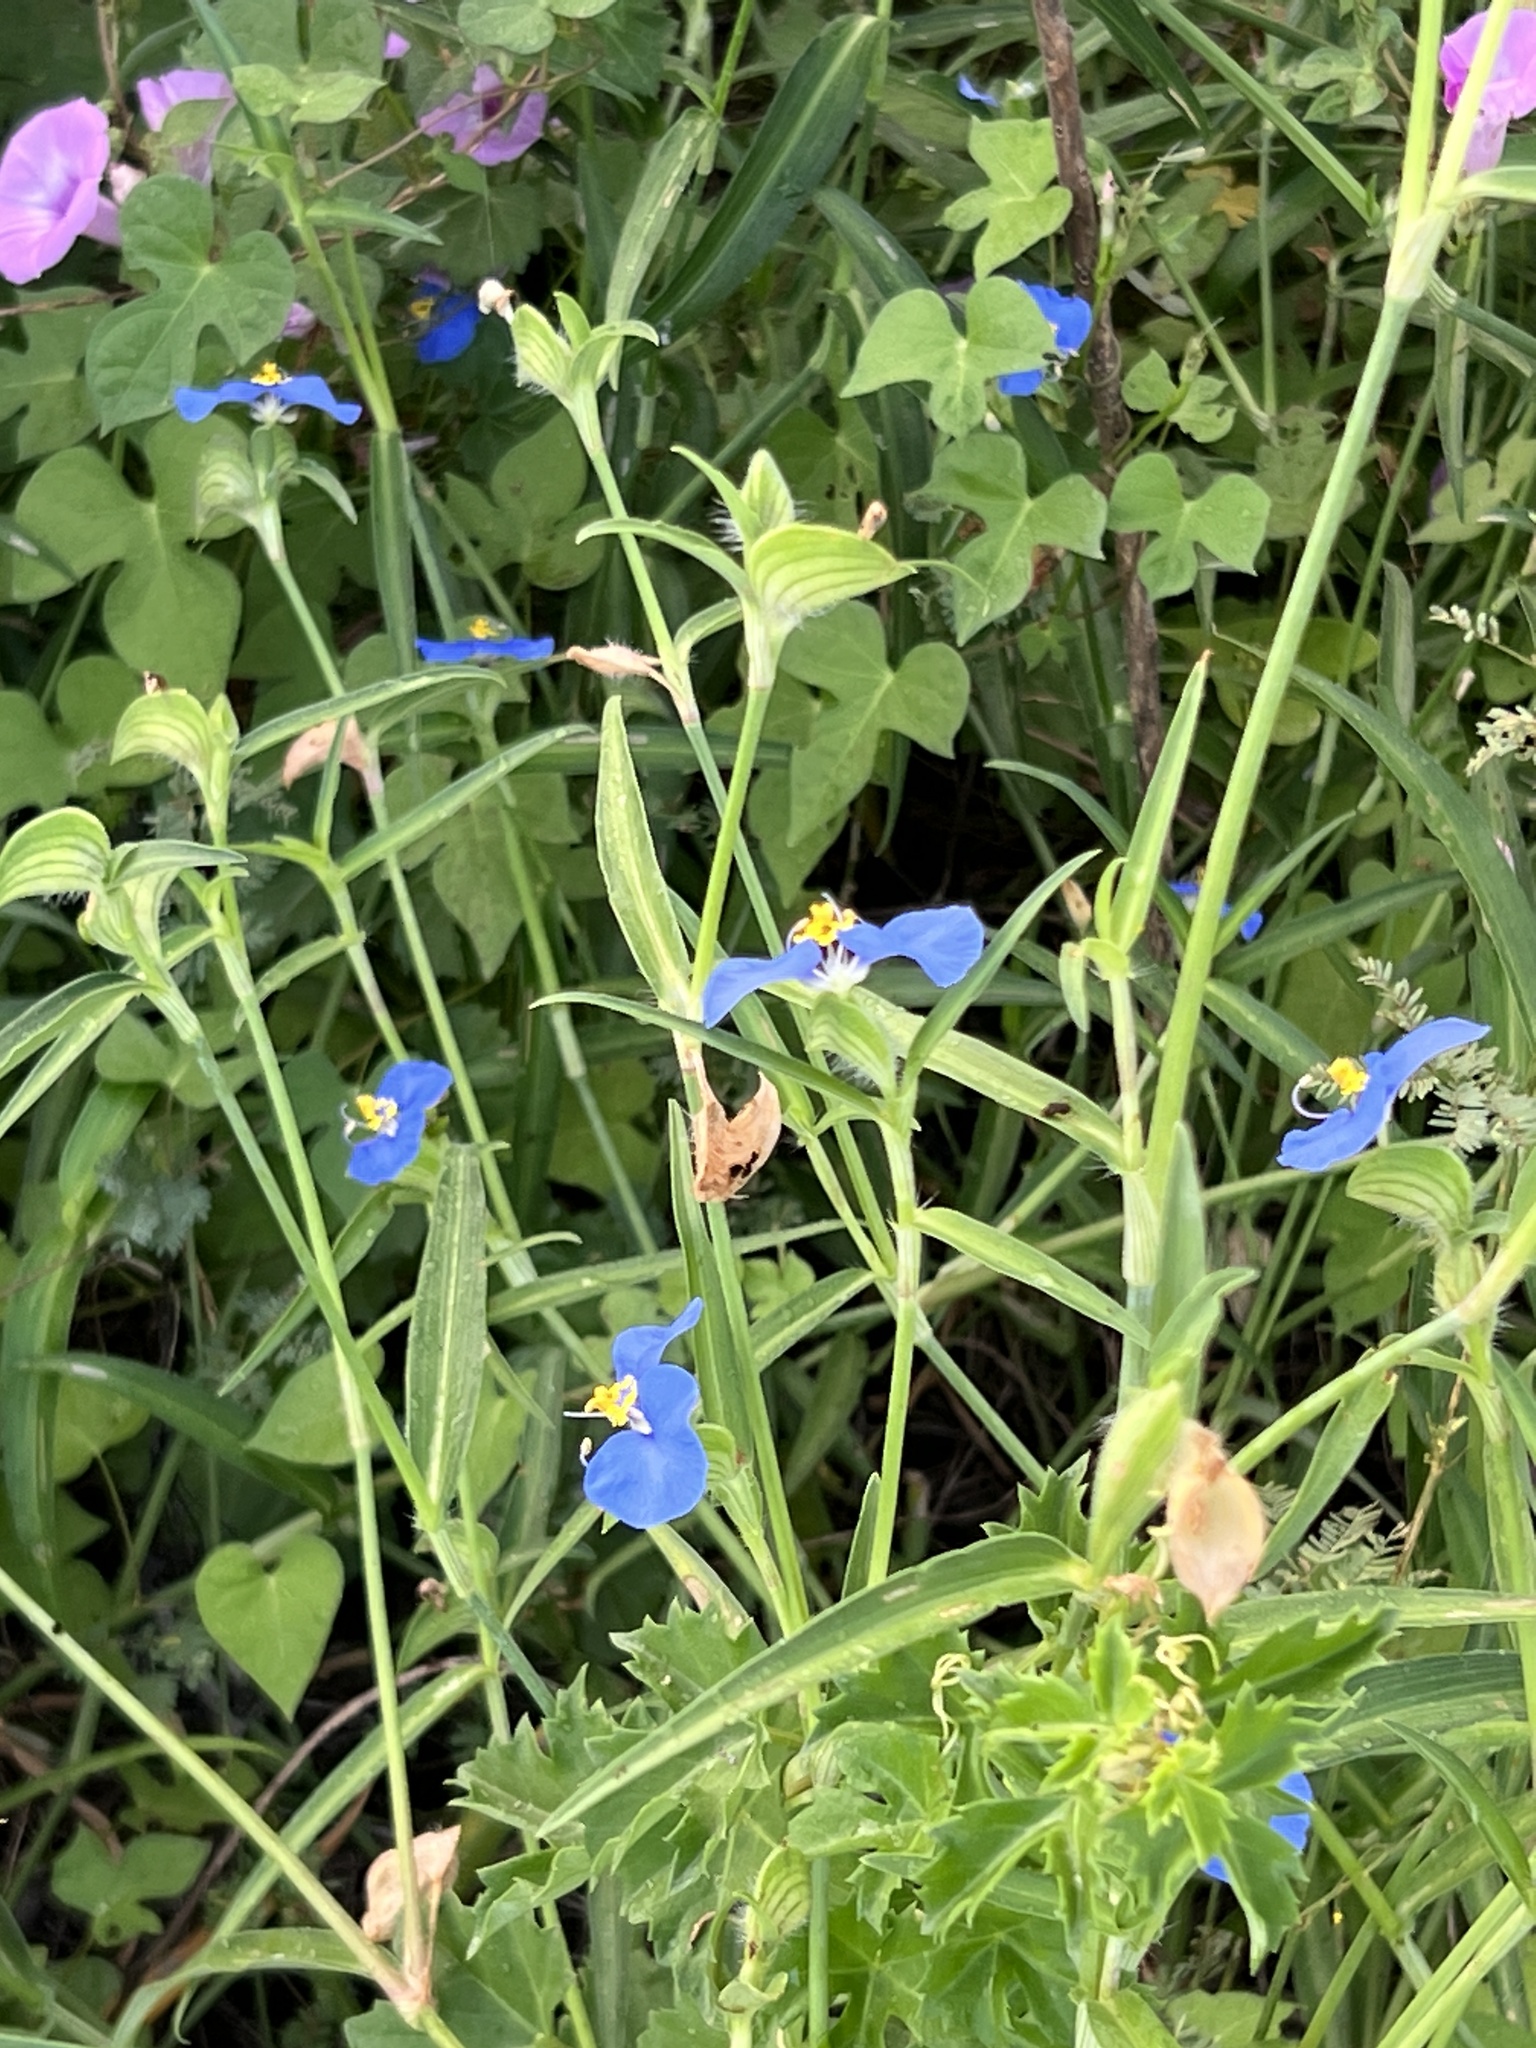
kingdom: Plantae
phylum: Tracheophyta
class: Liliopsida
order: Commelinales
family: Commelinaceae
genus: Commelina
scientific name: Commelina erecta
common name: Blousel blommetjie
